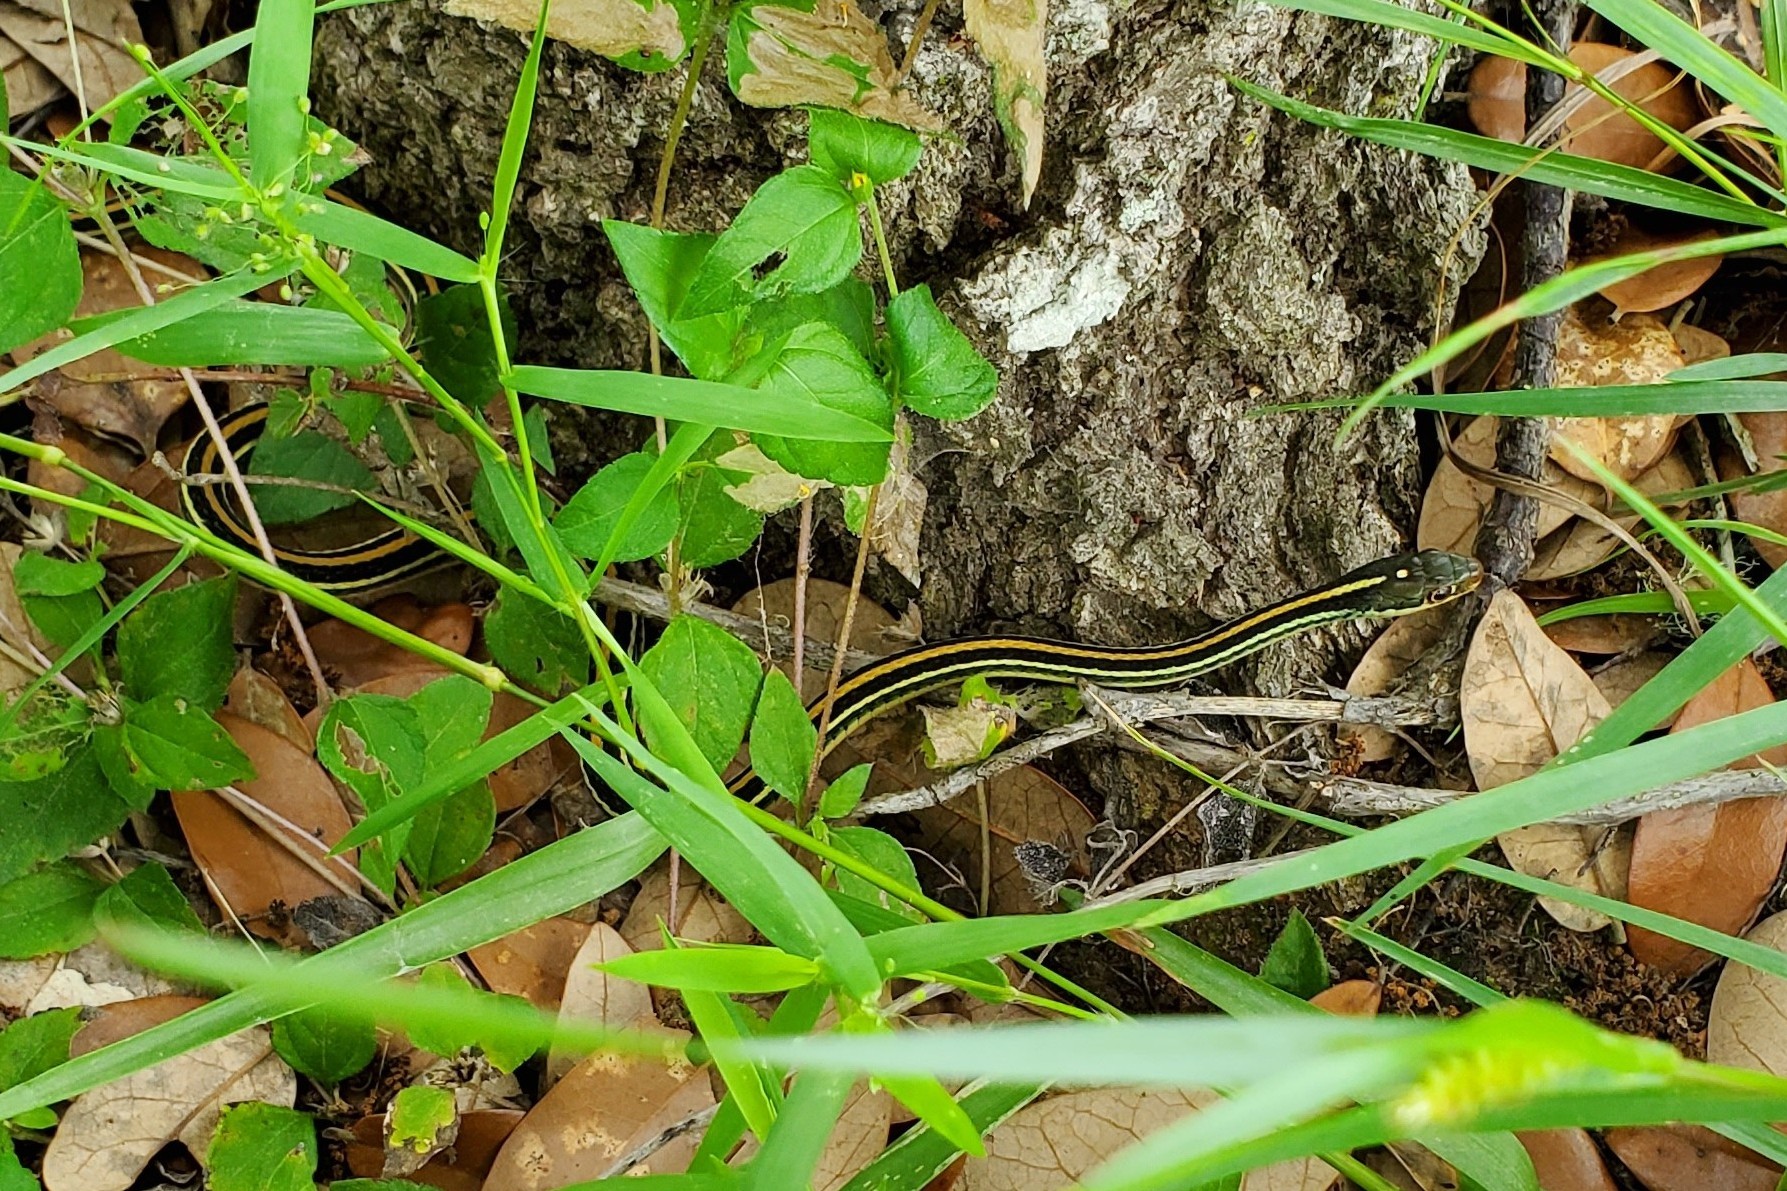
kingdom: Animalia
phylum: Chordata
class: Squamata
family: Colubridae
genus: Thamnophis
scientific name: Thamnophis proximus
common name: Western ribbon snake
